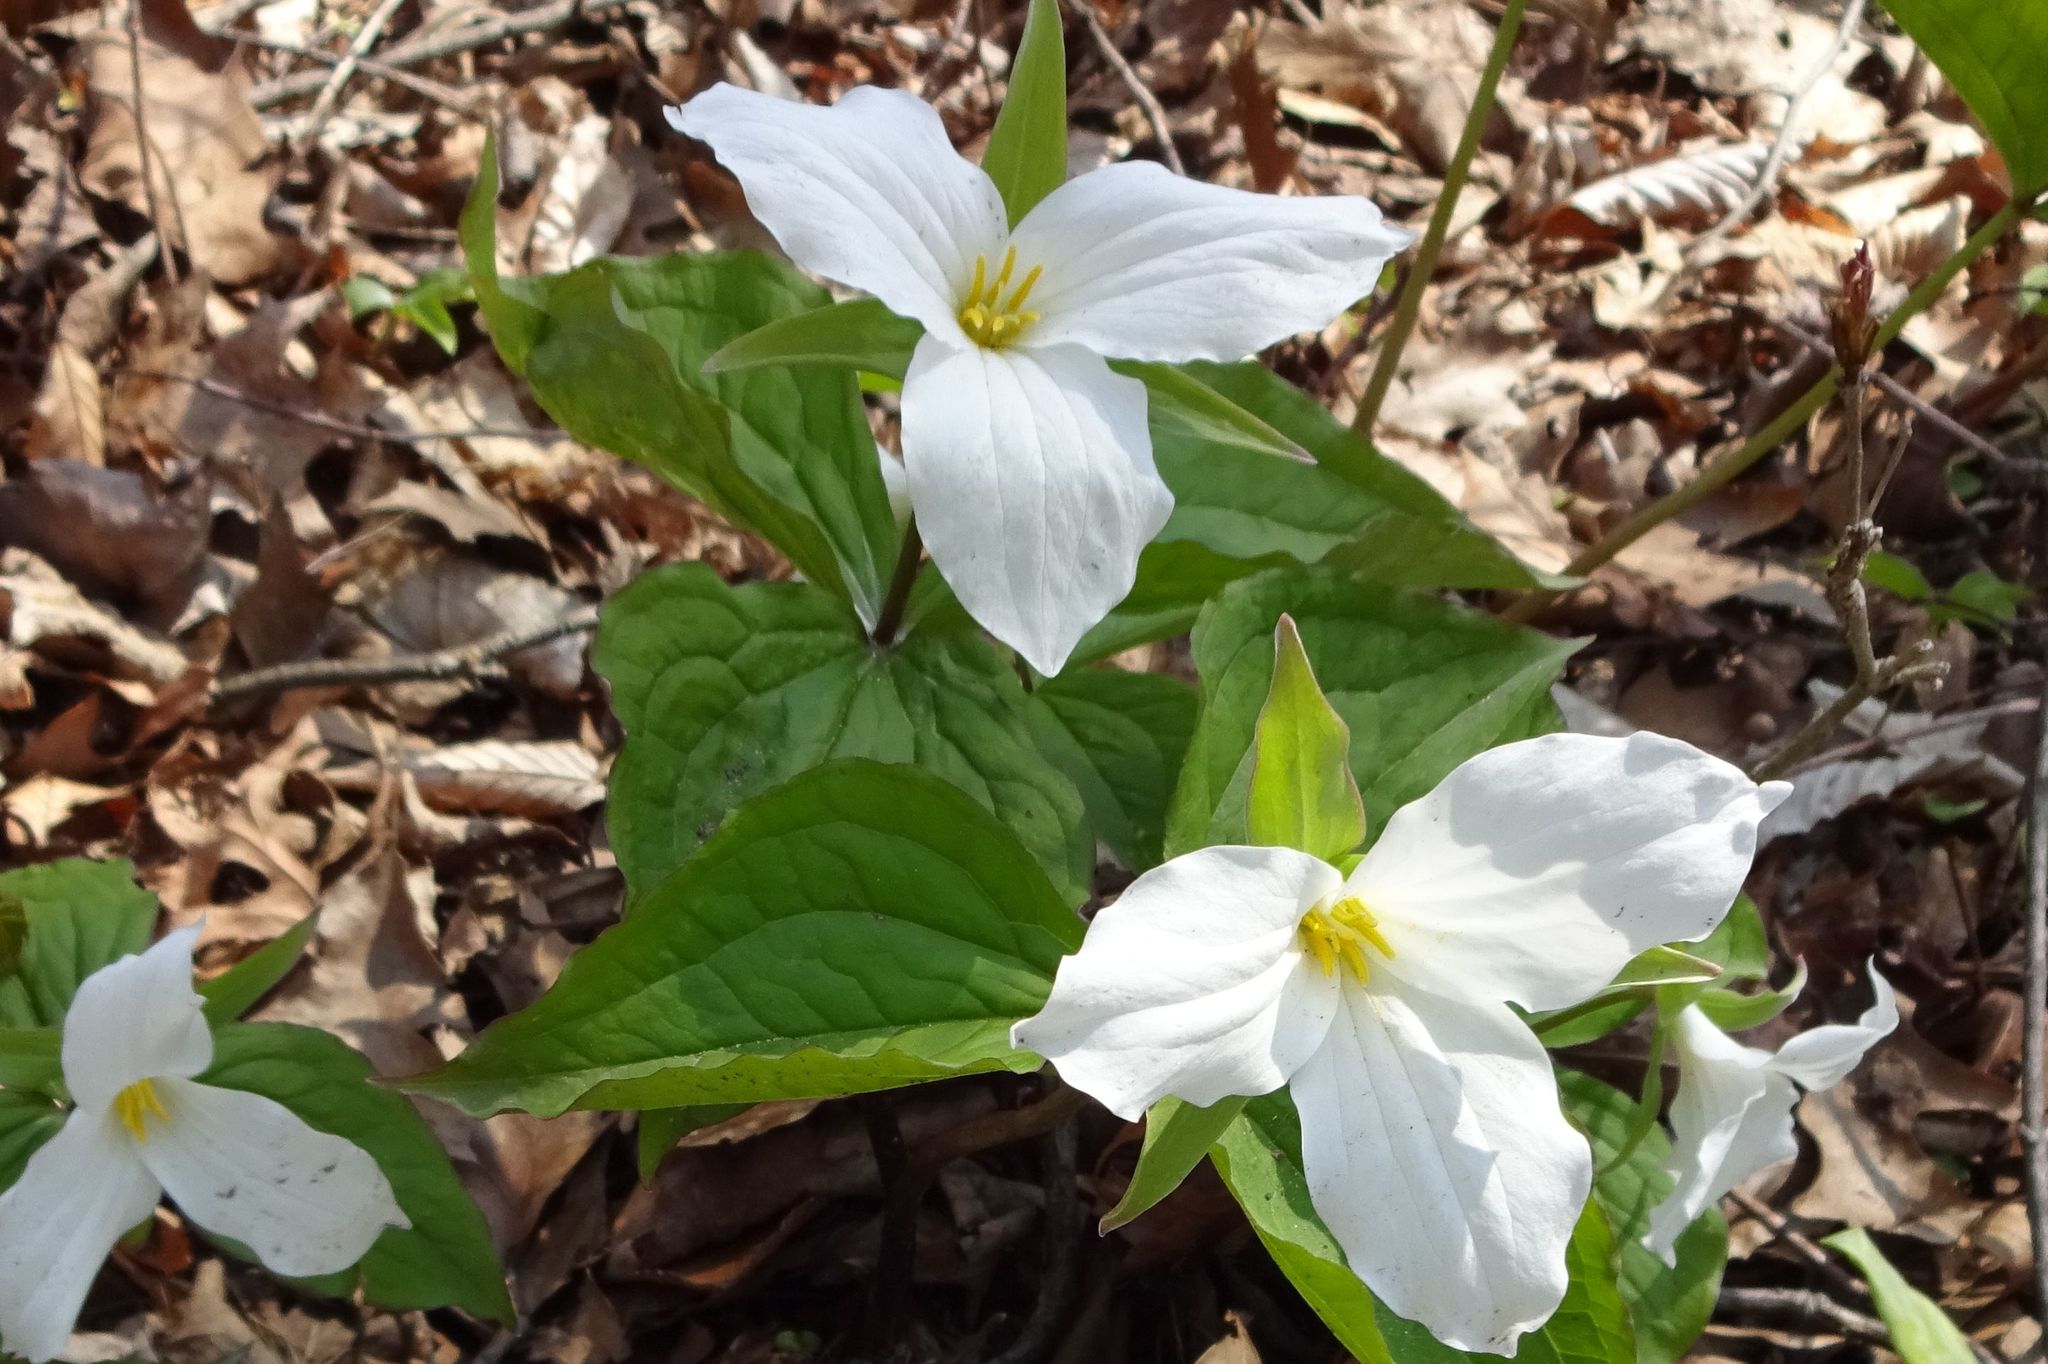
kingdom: Plantae
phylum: Tracheophyta
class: Liliopsida
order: Liliales
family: Melanthiaceae
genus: Trillium
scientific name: Trillium grandiflorum
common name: Great white trillium
